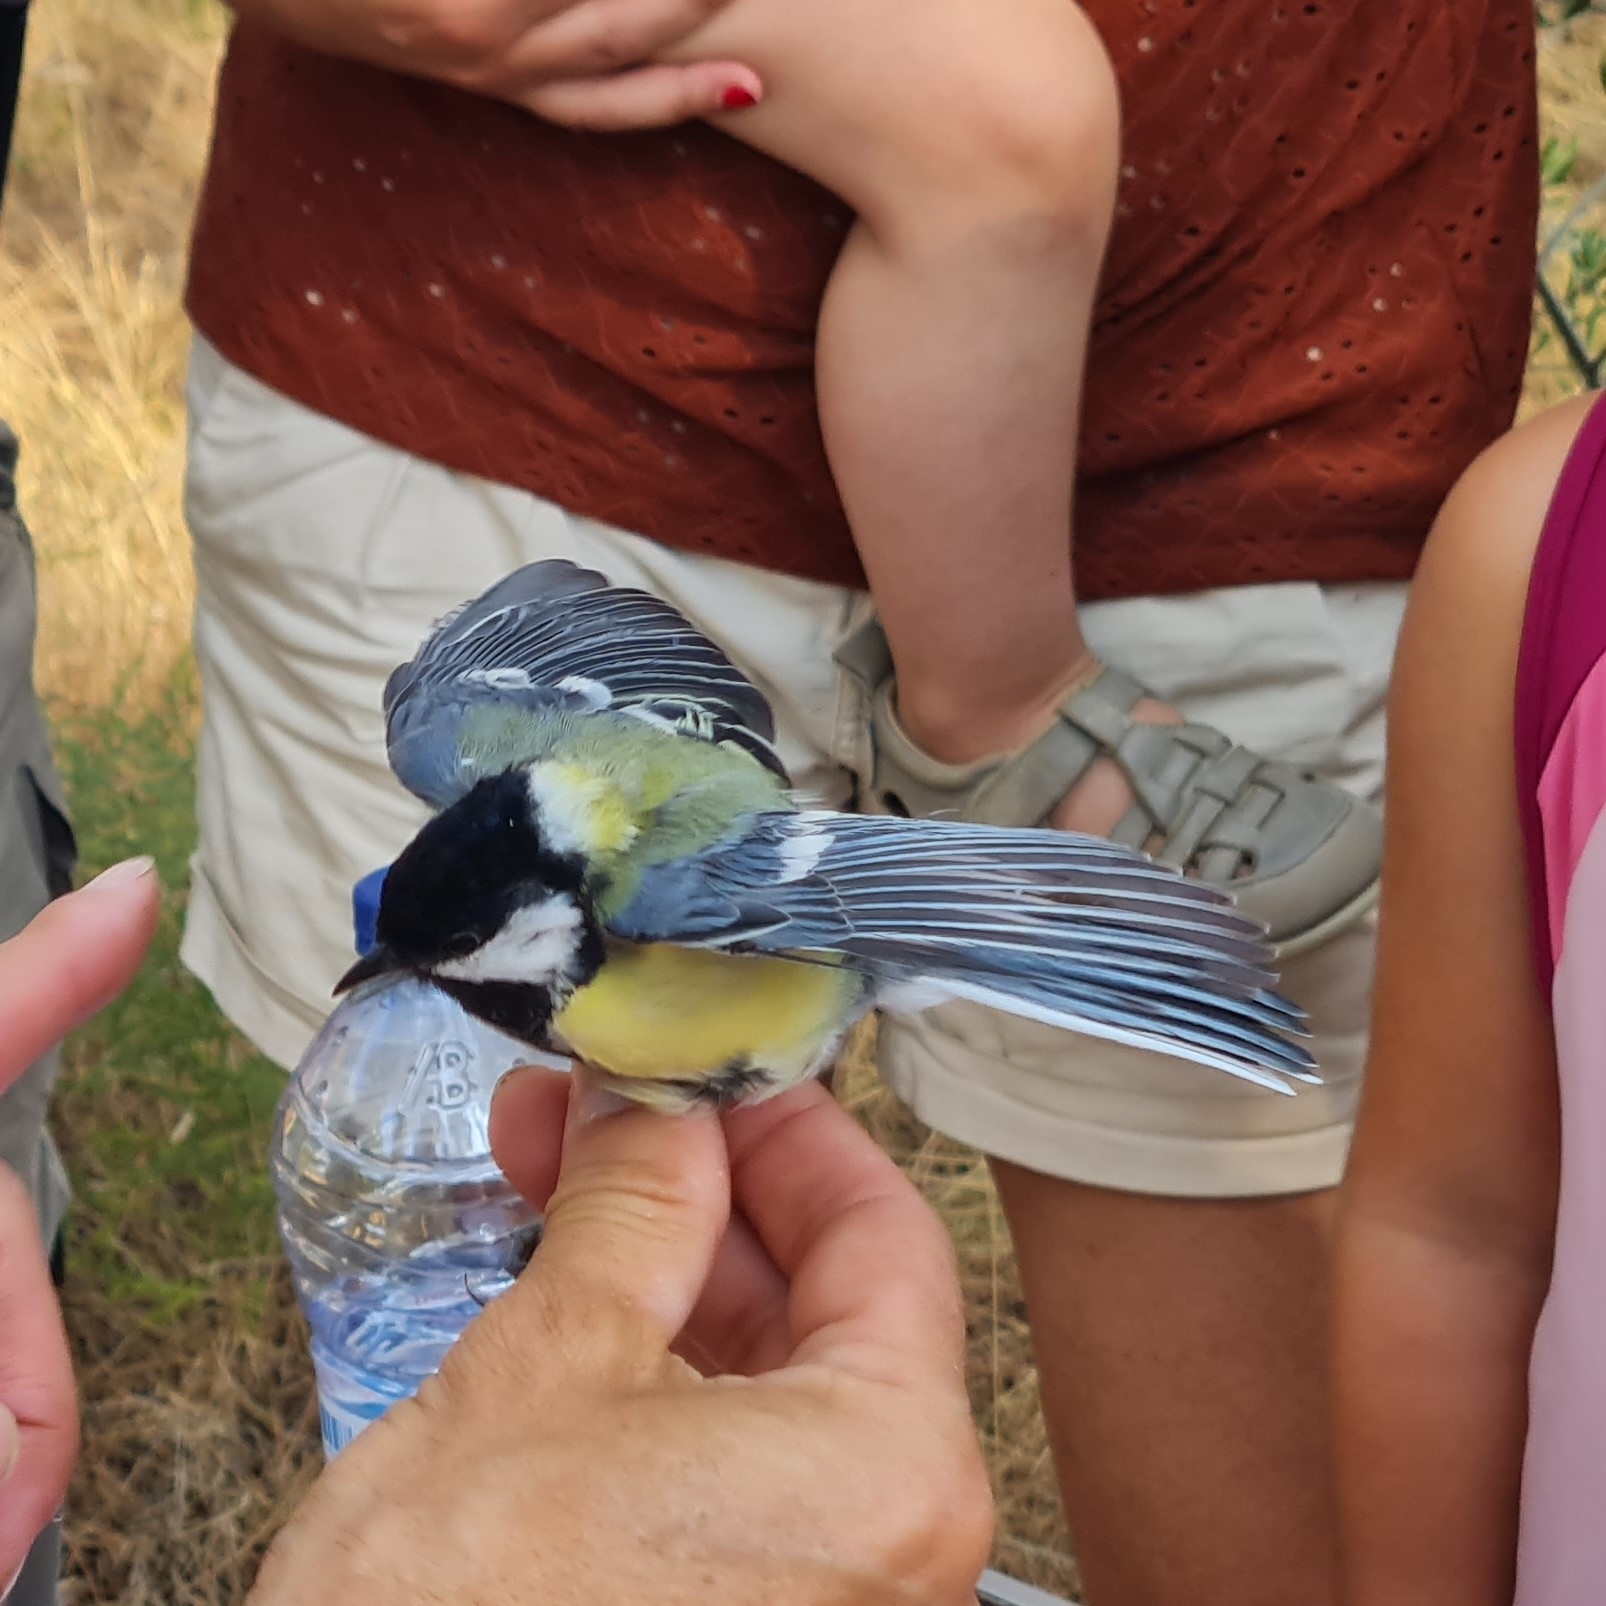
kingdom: Animalia
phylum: Chordata
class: Aves
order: Passeriformes
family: Paridae
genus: Parus
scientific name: Parus major
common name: Great tit
